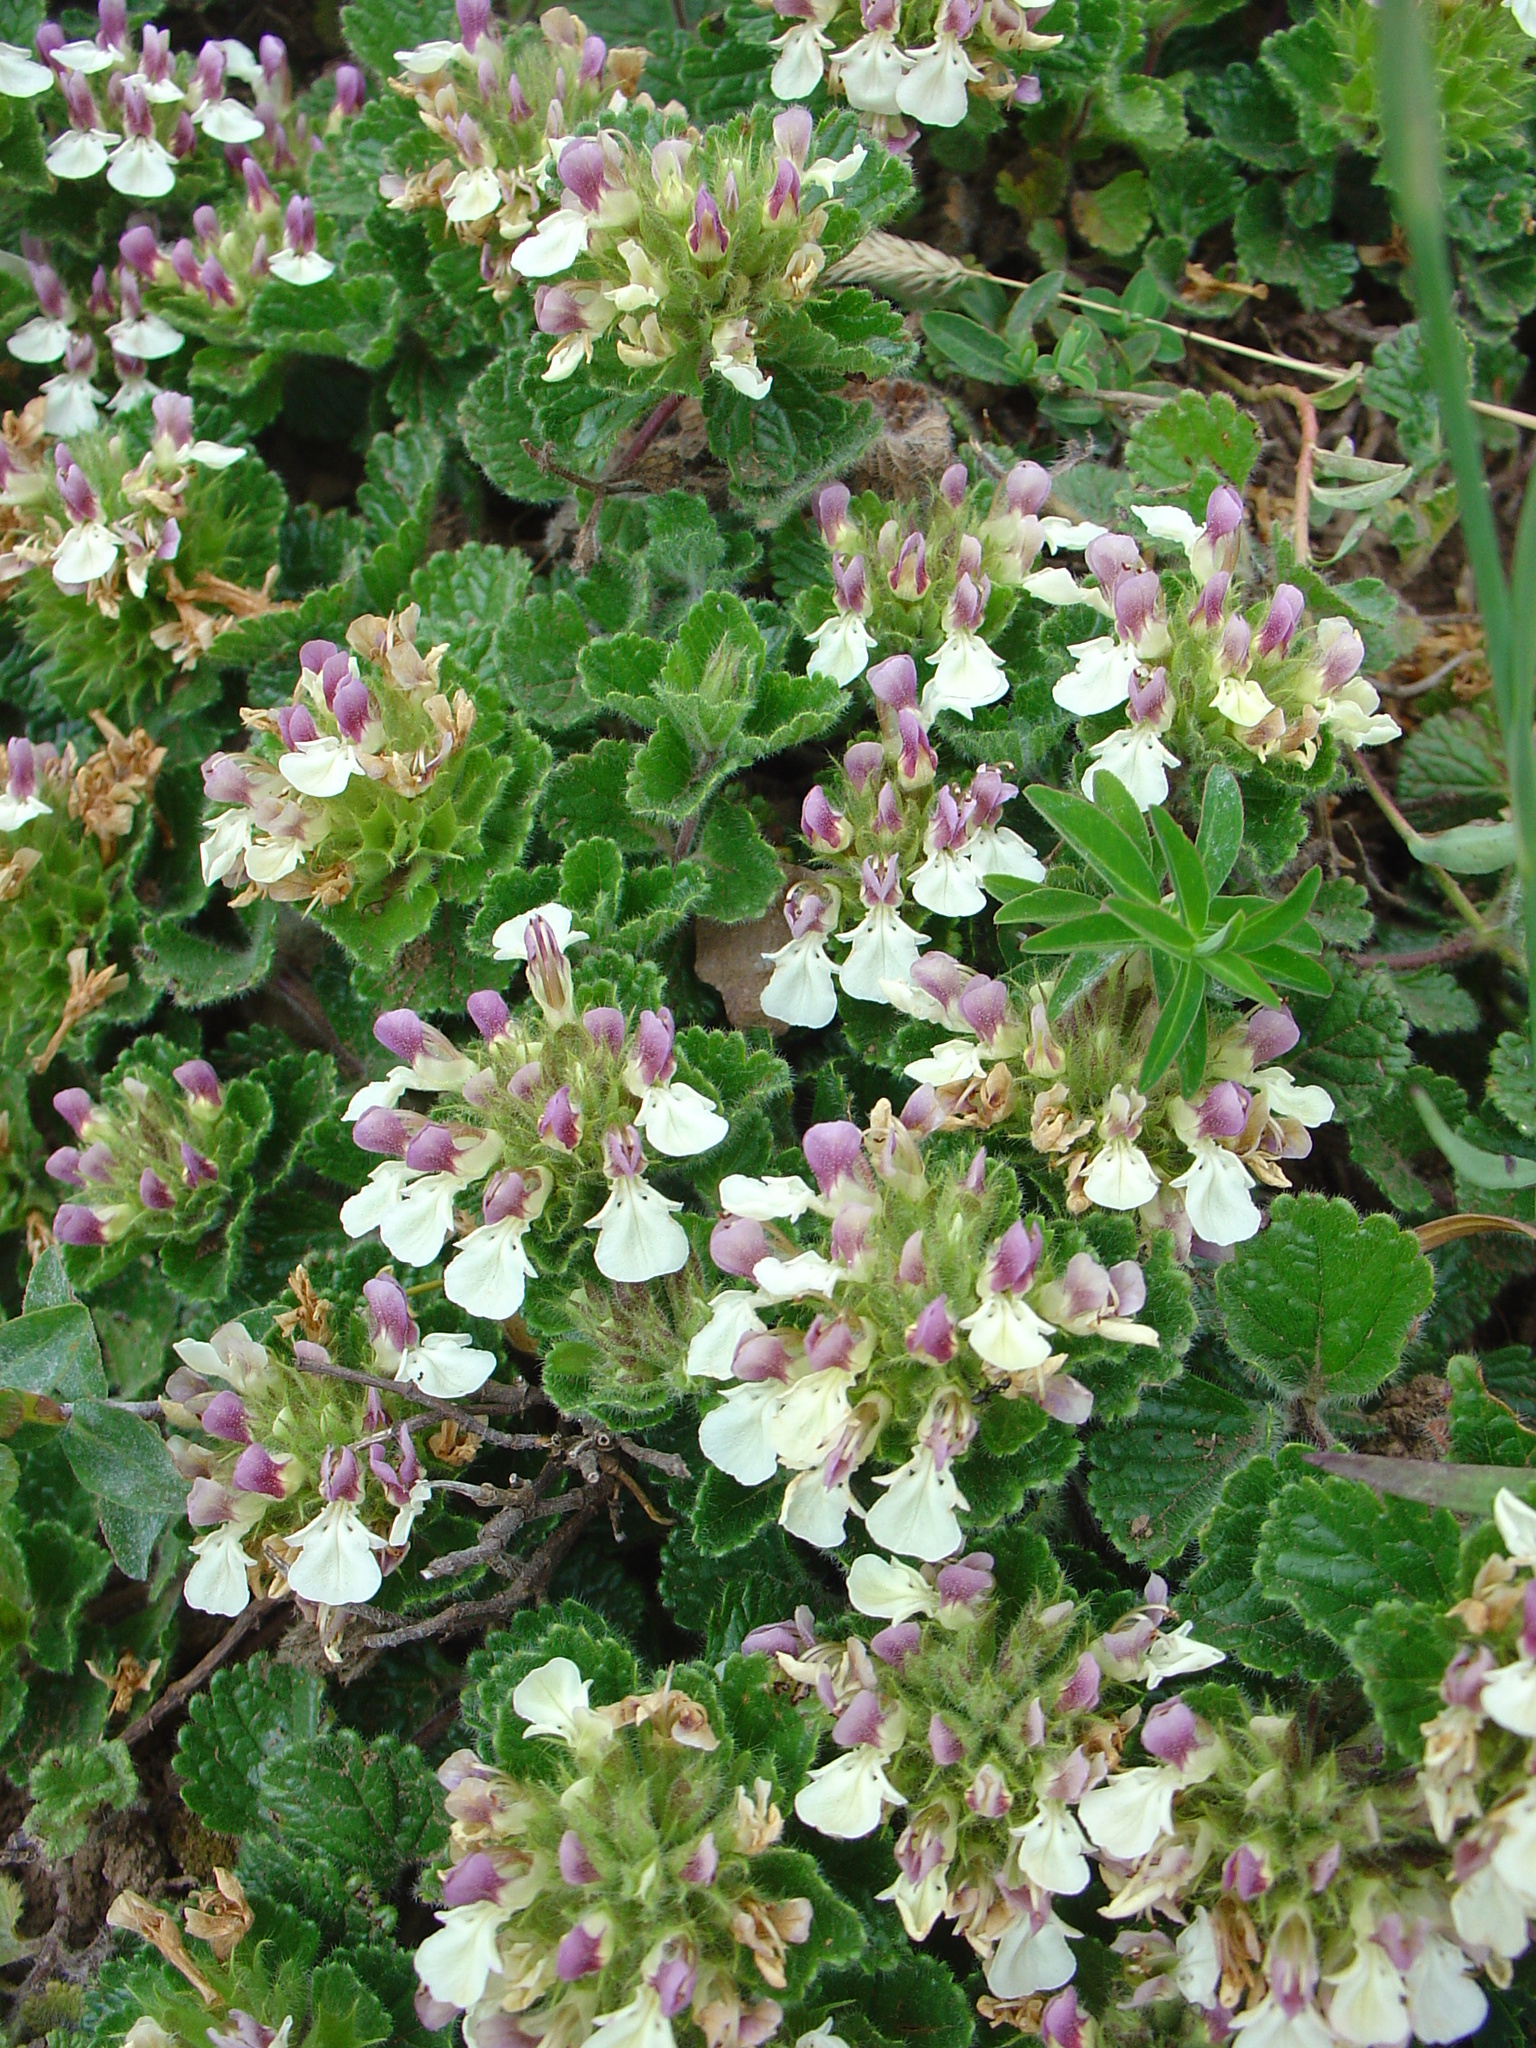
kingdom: Plantae
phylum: Tracheophyta
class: Magnoliopsida
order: Lamiales
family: Lamiaceae
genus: Teucrium
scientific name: Teucrium pyrenaicum
